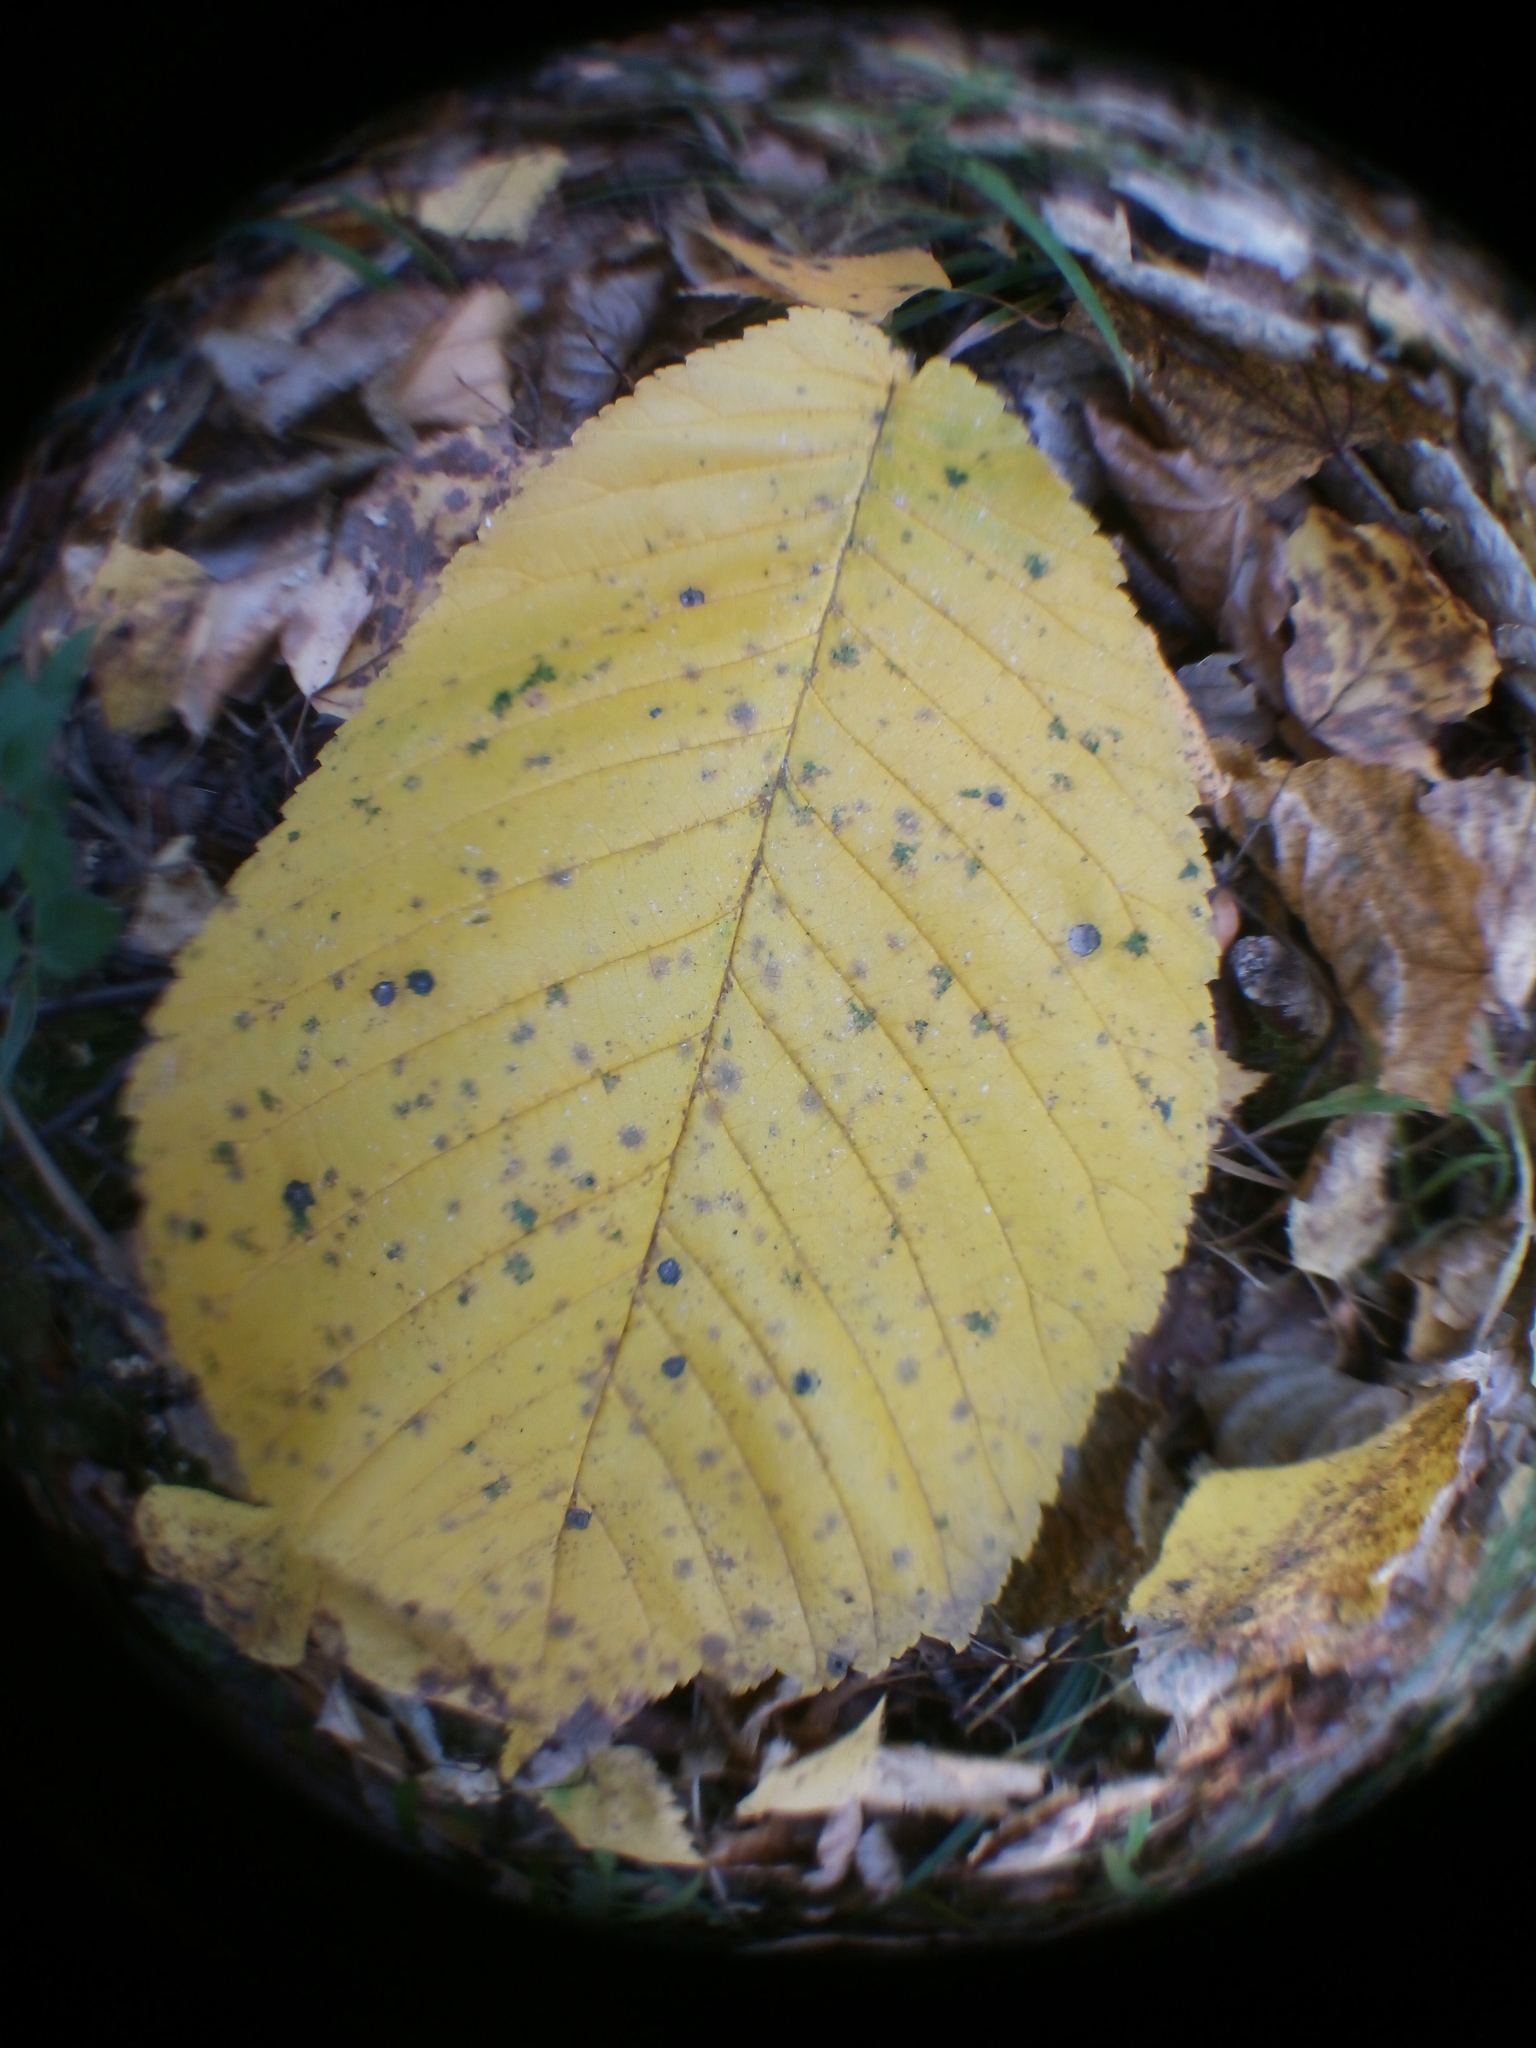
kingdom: Plantae
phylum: Tracheophyta
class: Magnoliopsida
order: Rosales
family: Ulmaceae
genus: Ulmus
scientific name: Ulmus glabra
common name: Wych elm
